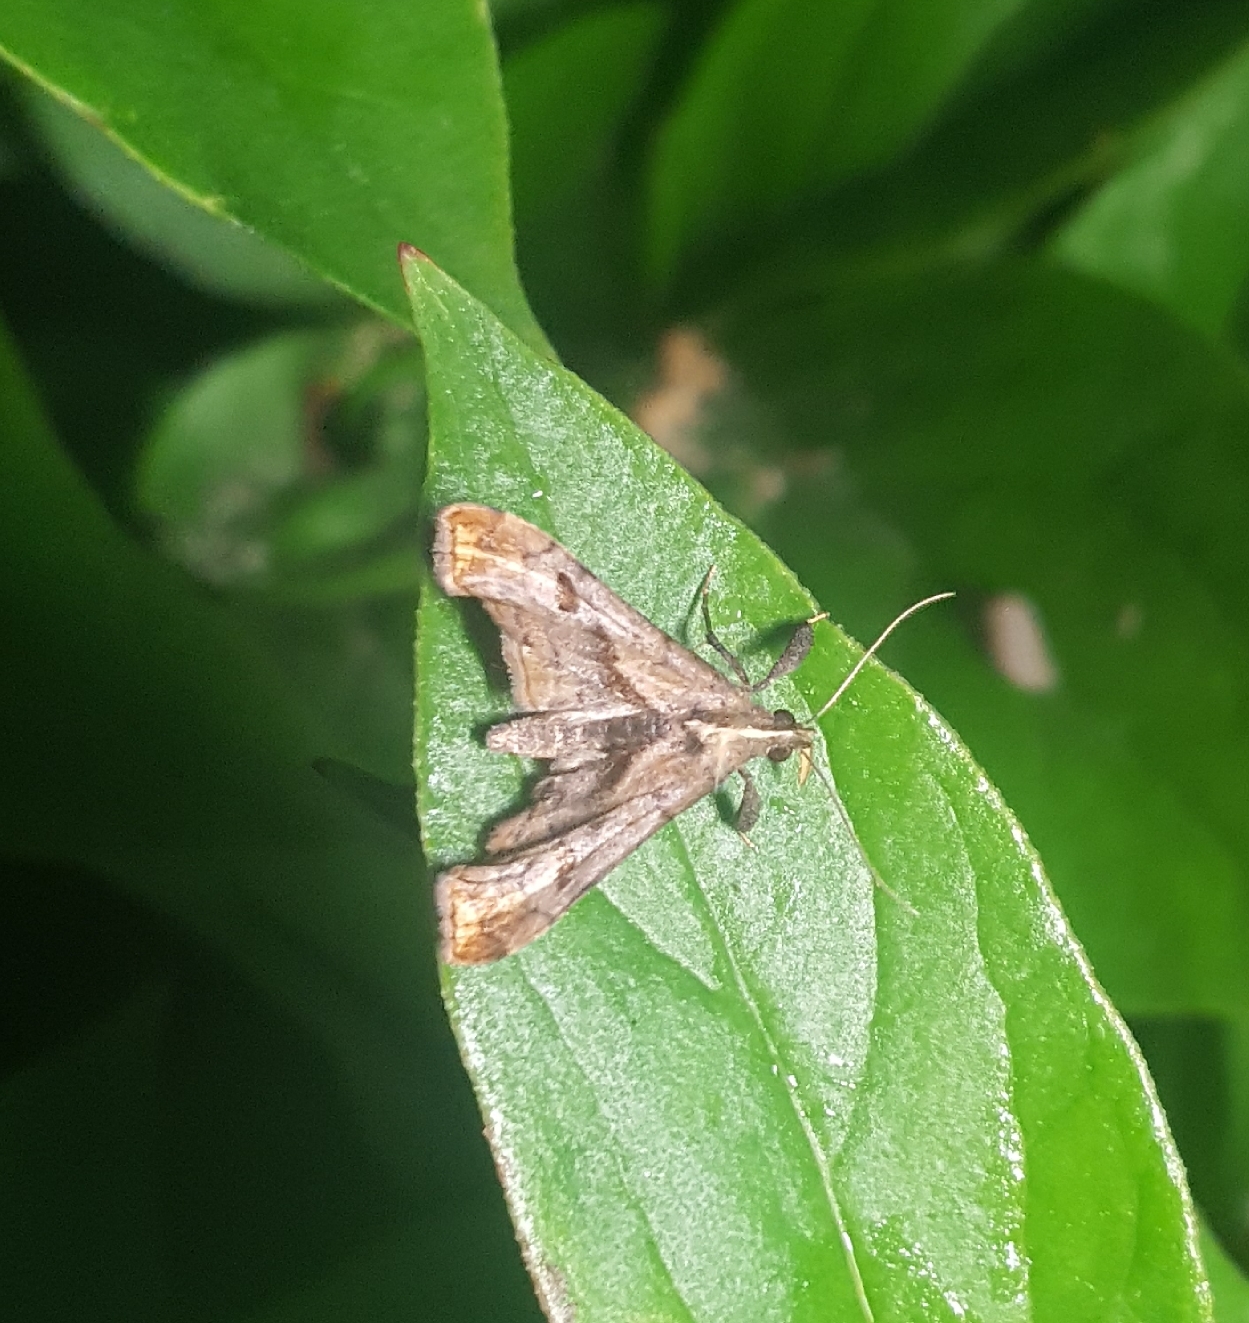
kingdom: Animalia
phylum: Arthropoda
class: Insecta
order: Lepidoptera
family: Erebidae
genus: Palthis
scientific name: Palthis angulalis
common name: Dark-spotted palthis moth
